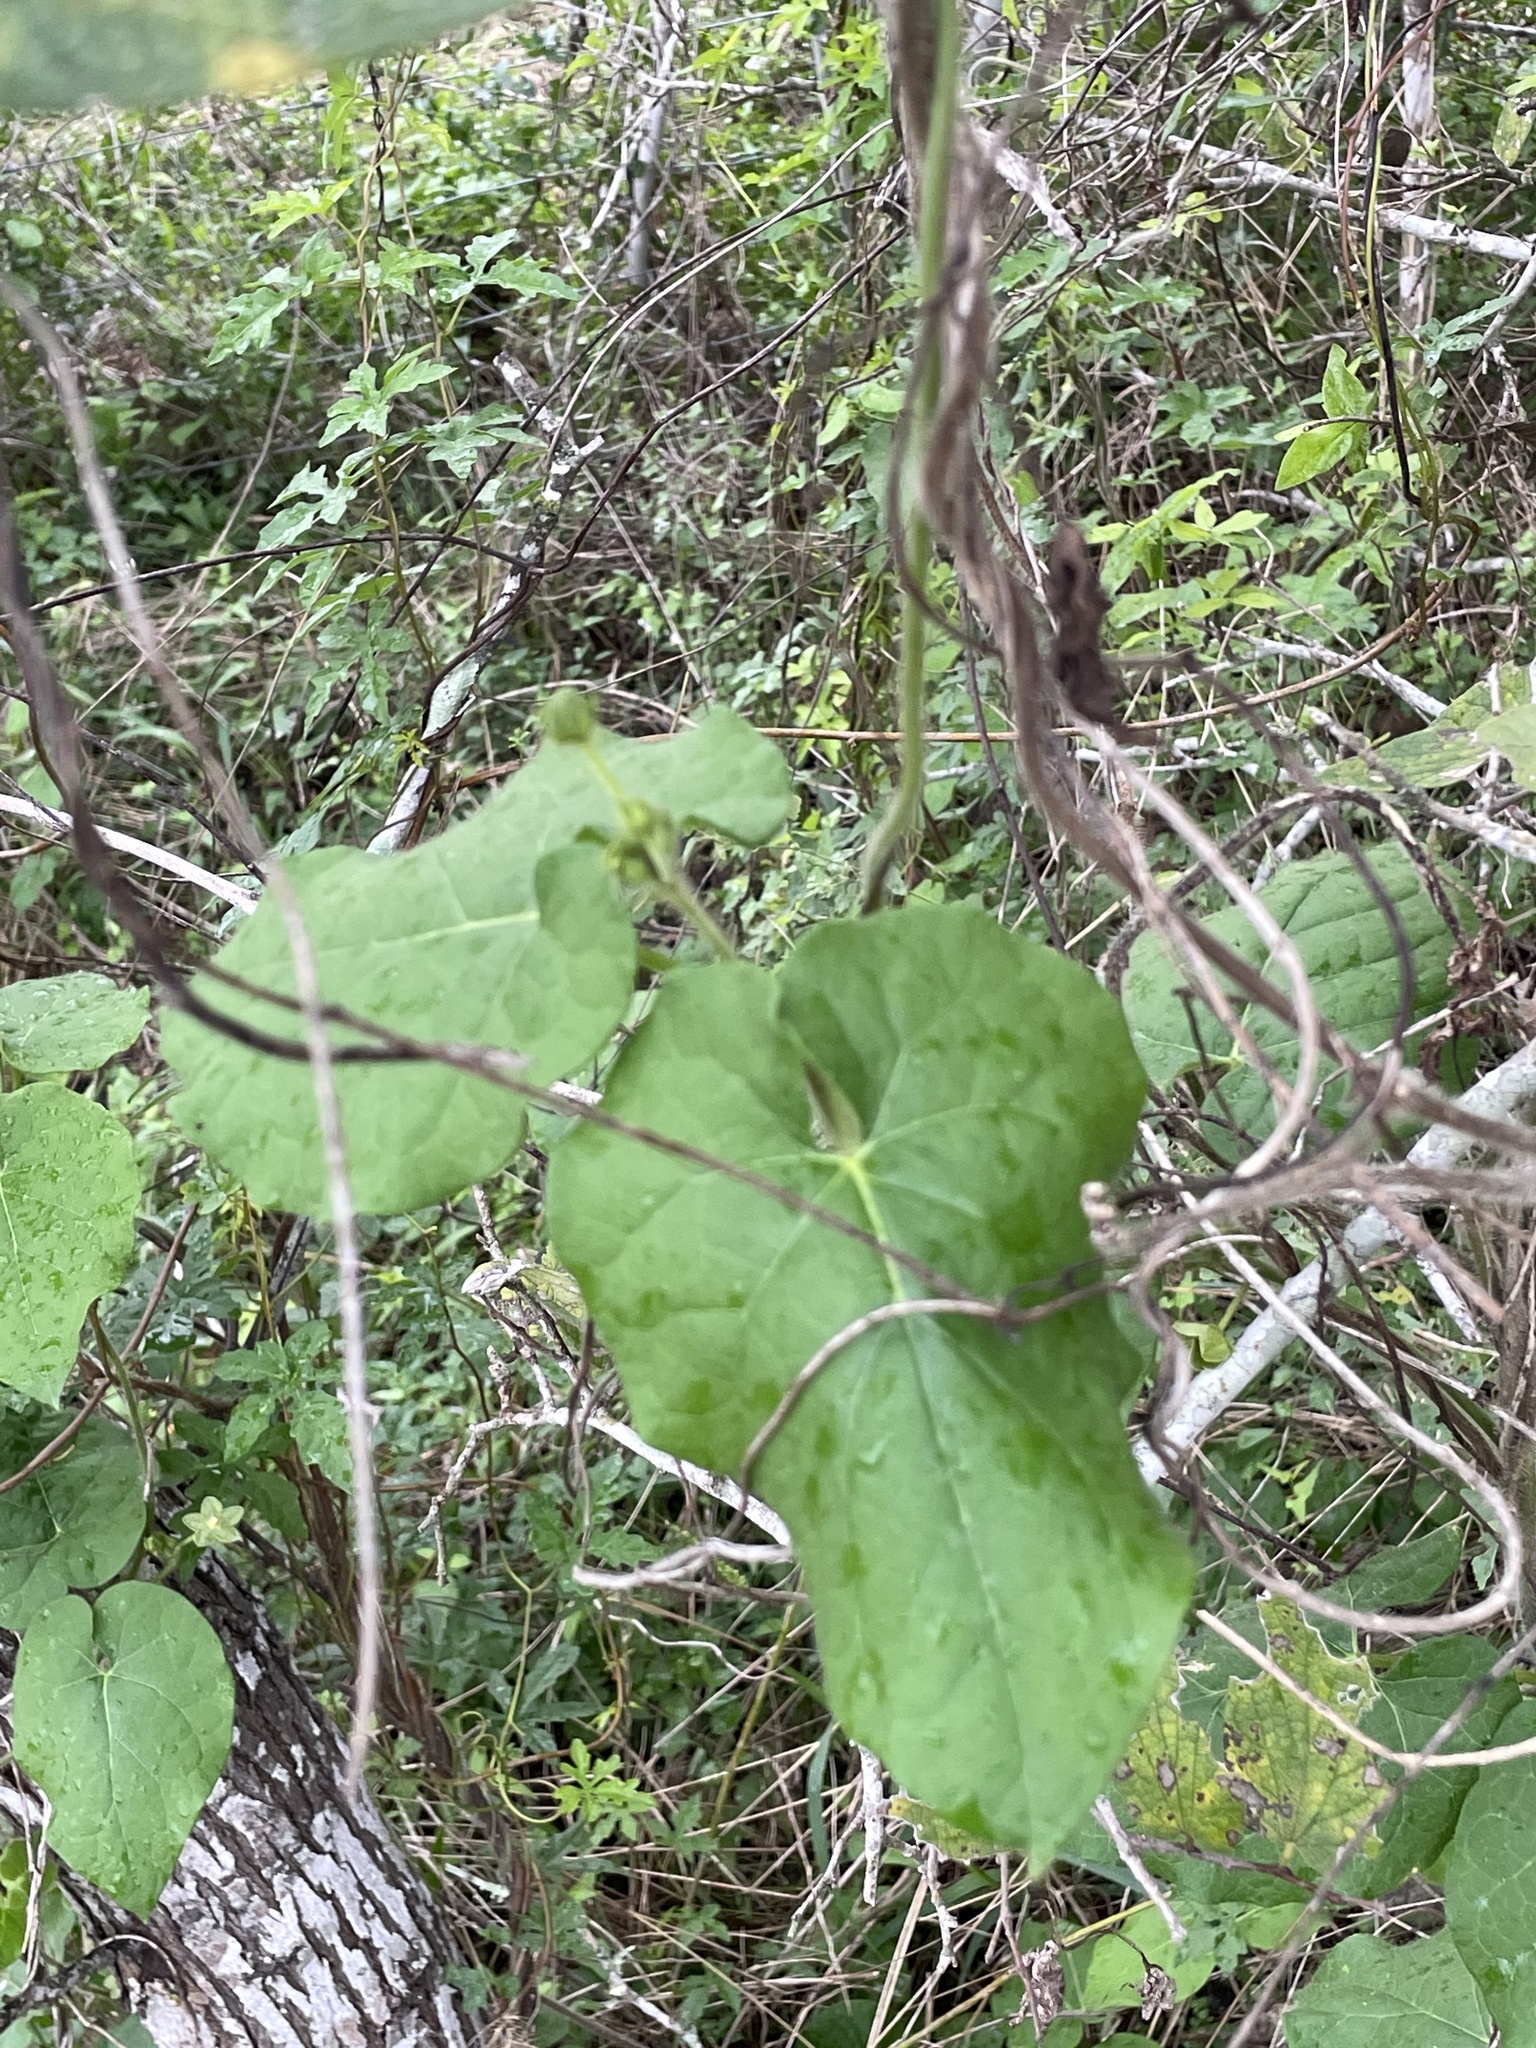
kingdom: Plantae
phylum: Tracheophyta
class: Magnoliopsida
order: Gentianales
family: Apocynaceae
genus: Dictyanthus
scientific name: Dictyanthus reticulatus
